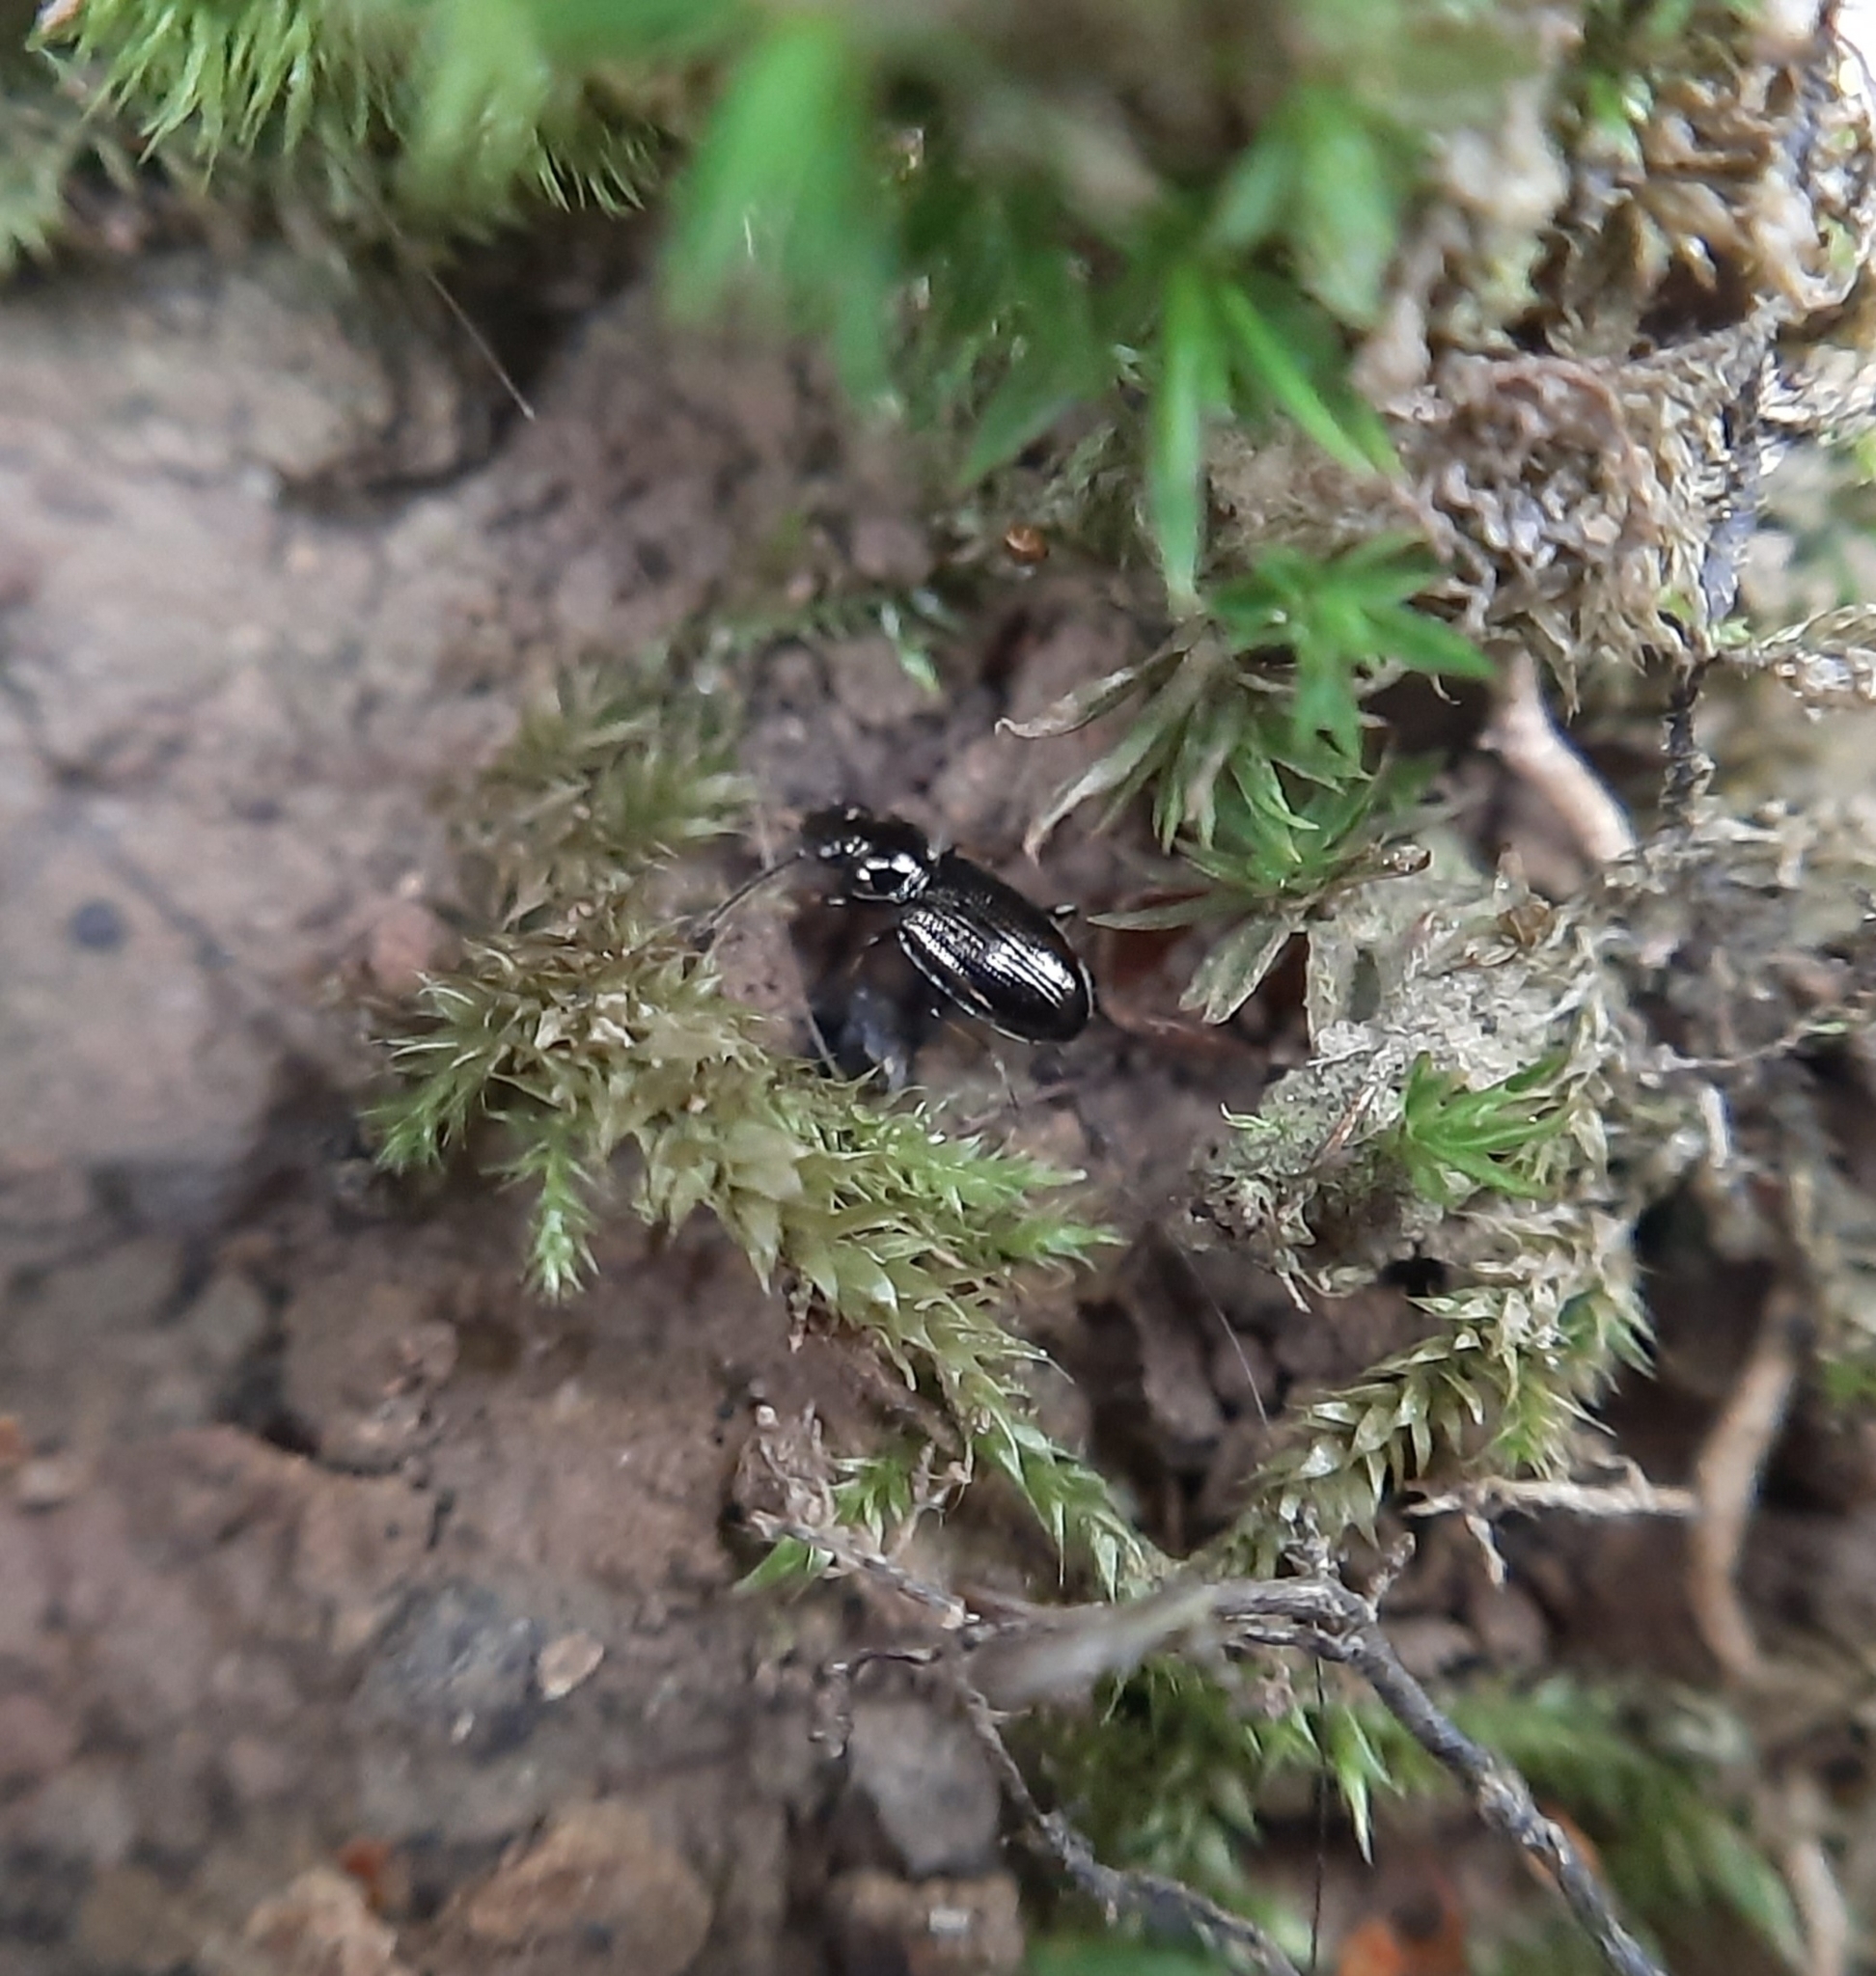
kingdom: Animalia
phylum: Arthropoda
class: Insecta
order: Coleoptera
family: Carabidae
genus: Metallina
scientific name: Metallina
